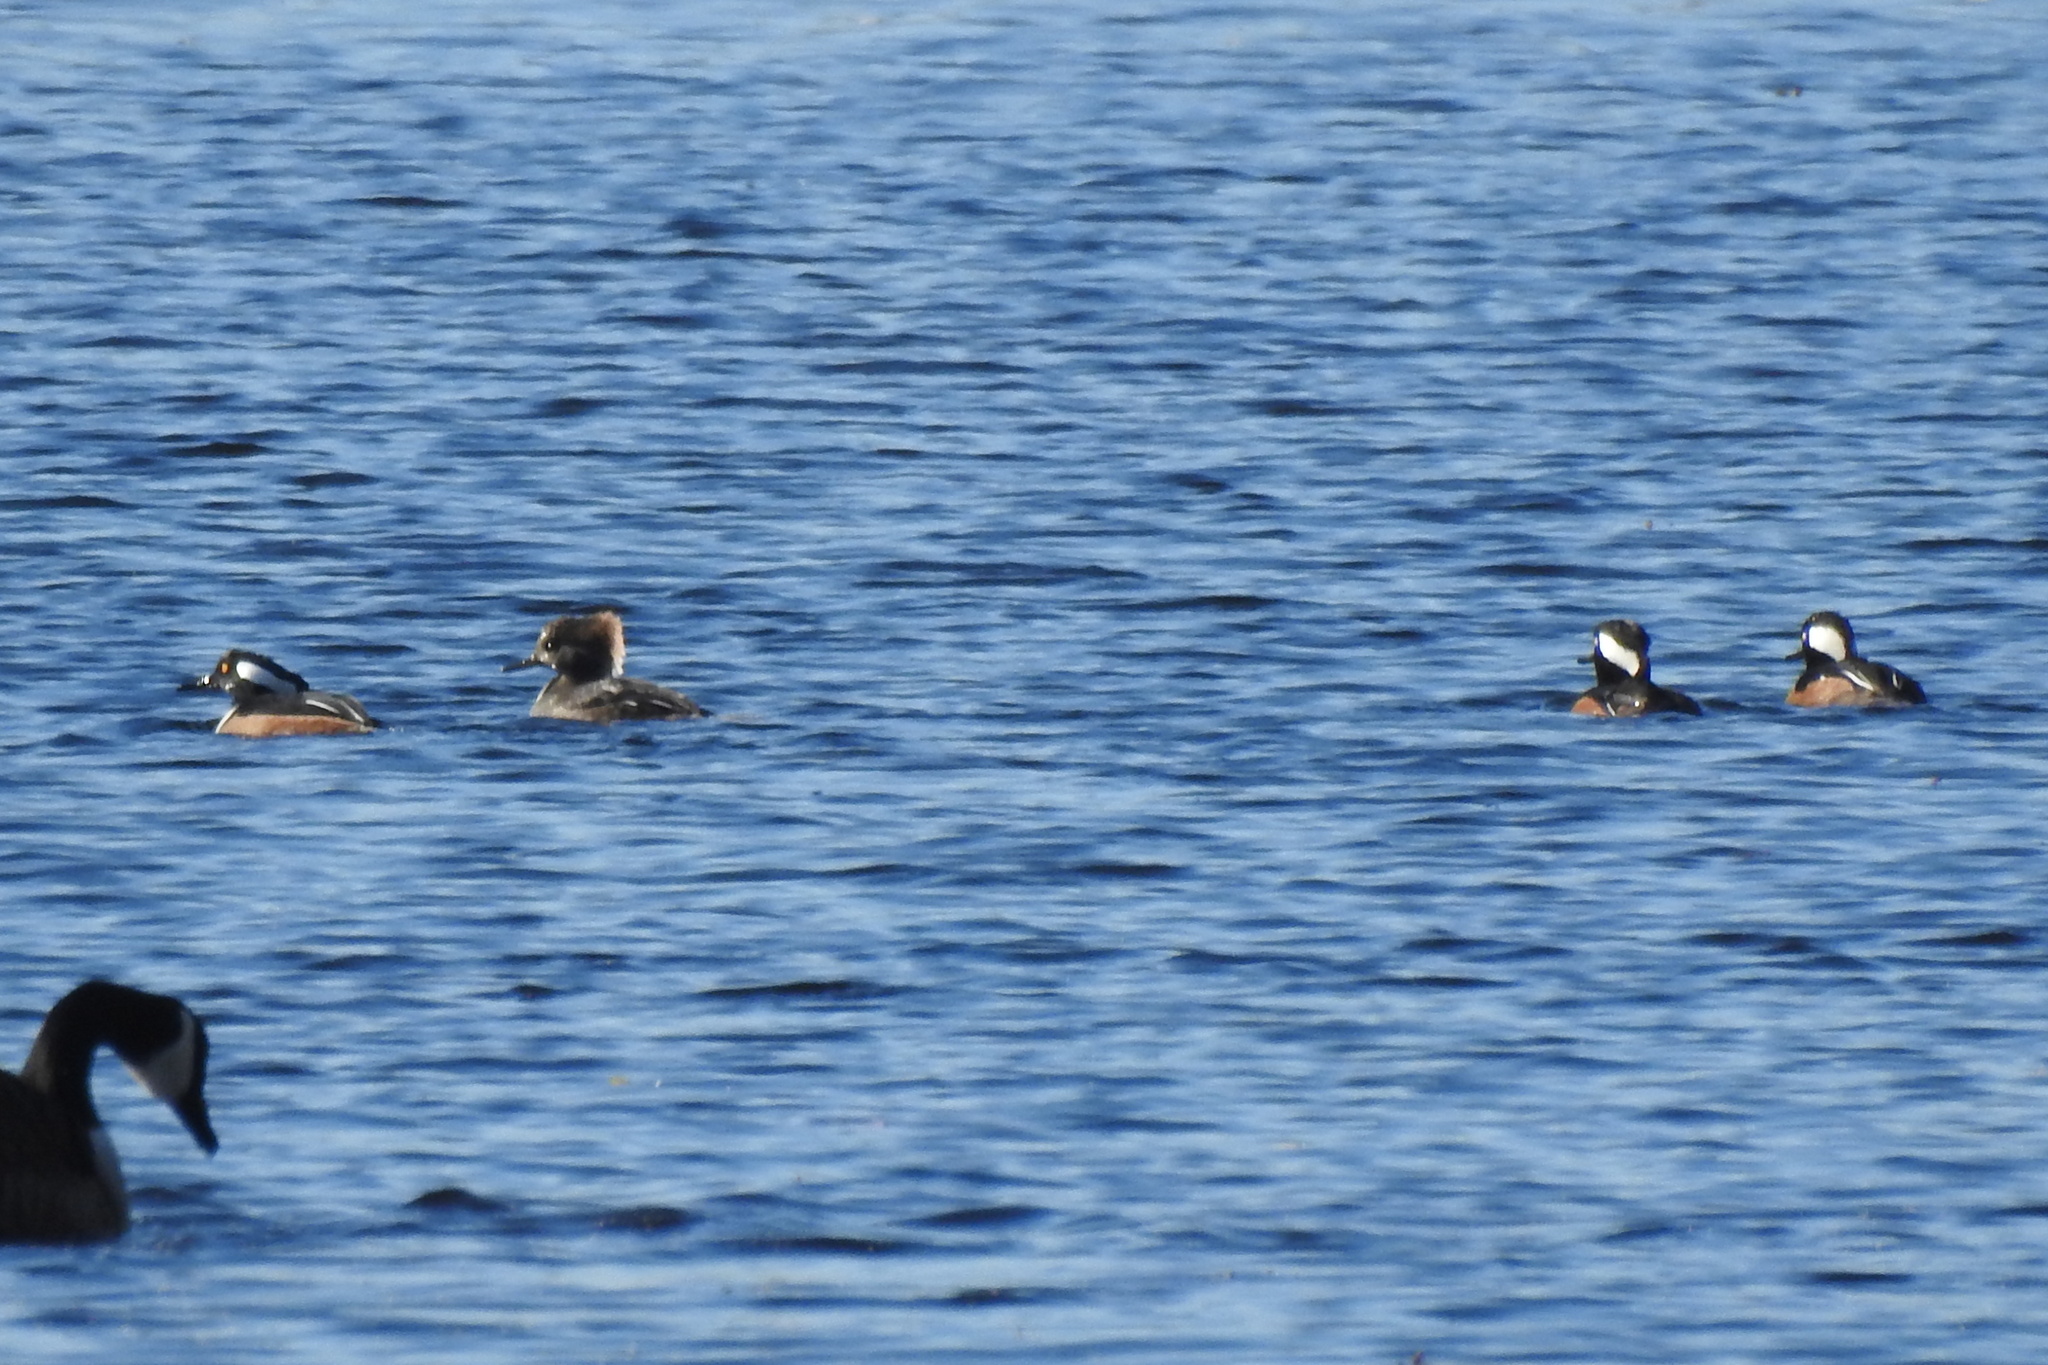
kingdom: Animalia
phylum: Chordata
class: Aves
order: Anseriformes
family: Anatidae
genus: Lophodytes
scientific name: Lophodytes cucullatus
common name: Hooded merganser
